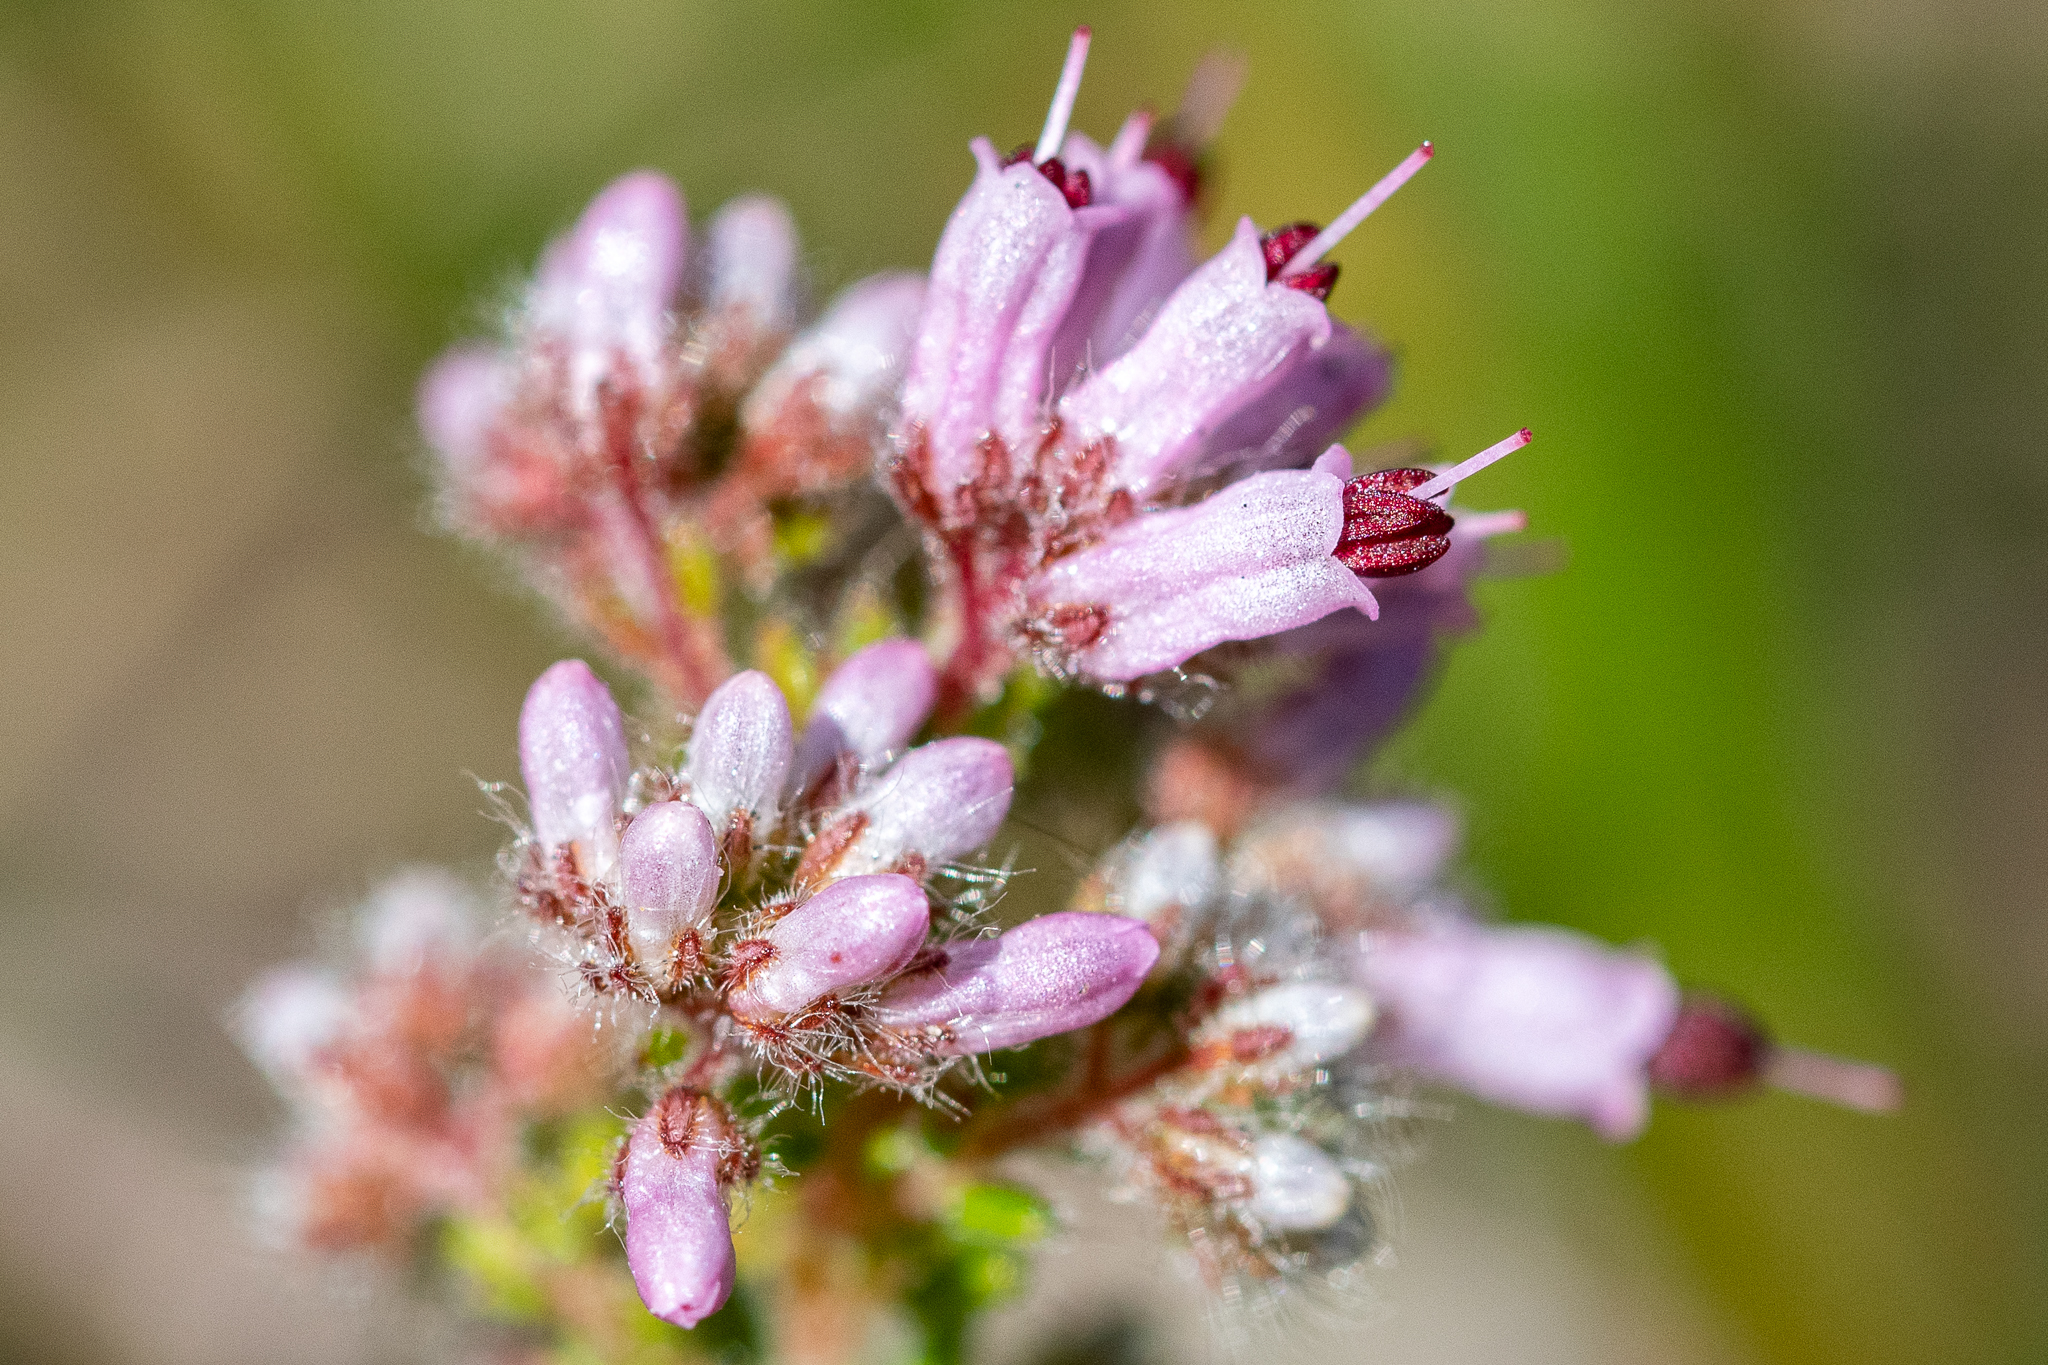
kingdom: Plantae
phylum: Tracheophyta
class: Magnoliopsida
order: Ericales
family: Ericaceae
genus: Erica
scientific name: Erica ericoides
